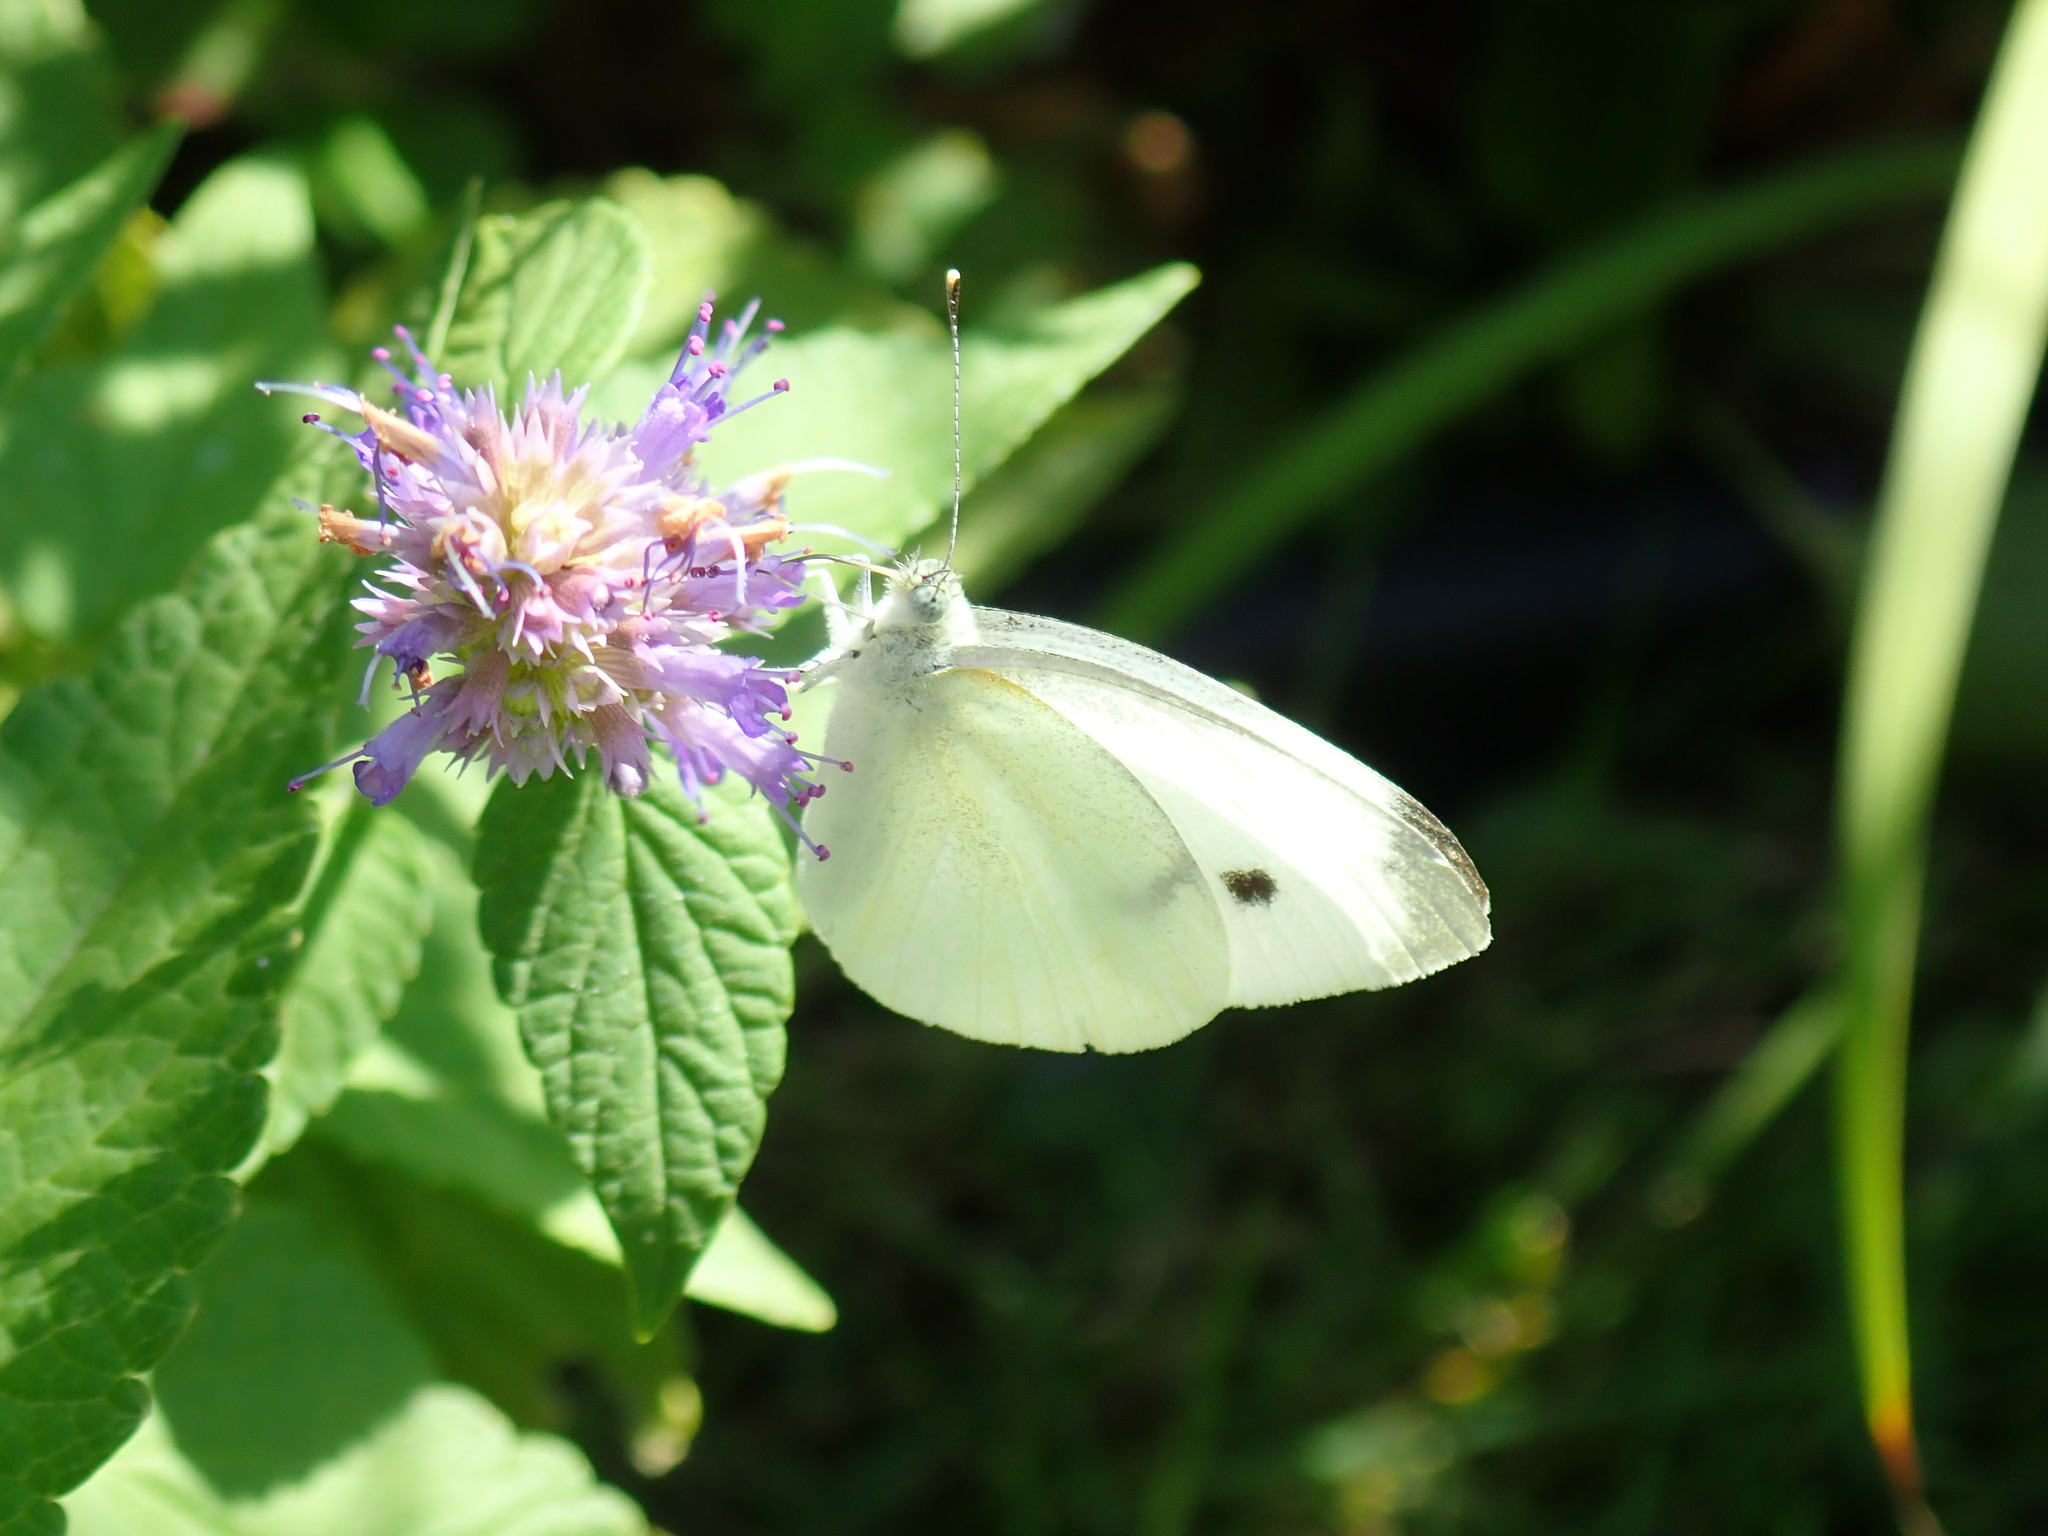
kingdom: Animalia
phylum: Arthropoda
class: Insecta
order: Lepidoptera
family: Pieridae
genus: Pieris
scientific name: Pieris rapae
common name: Small white
